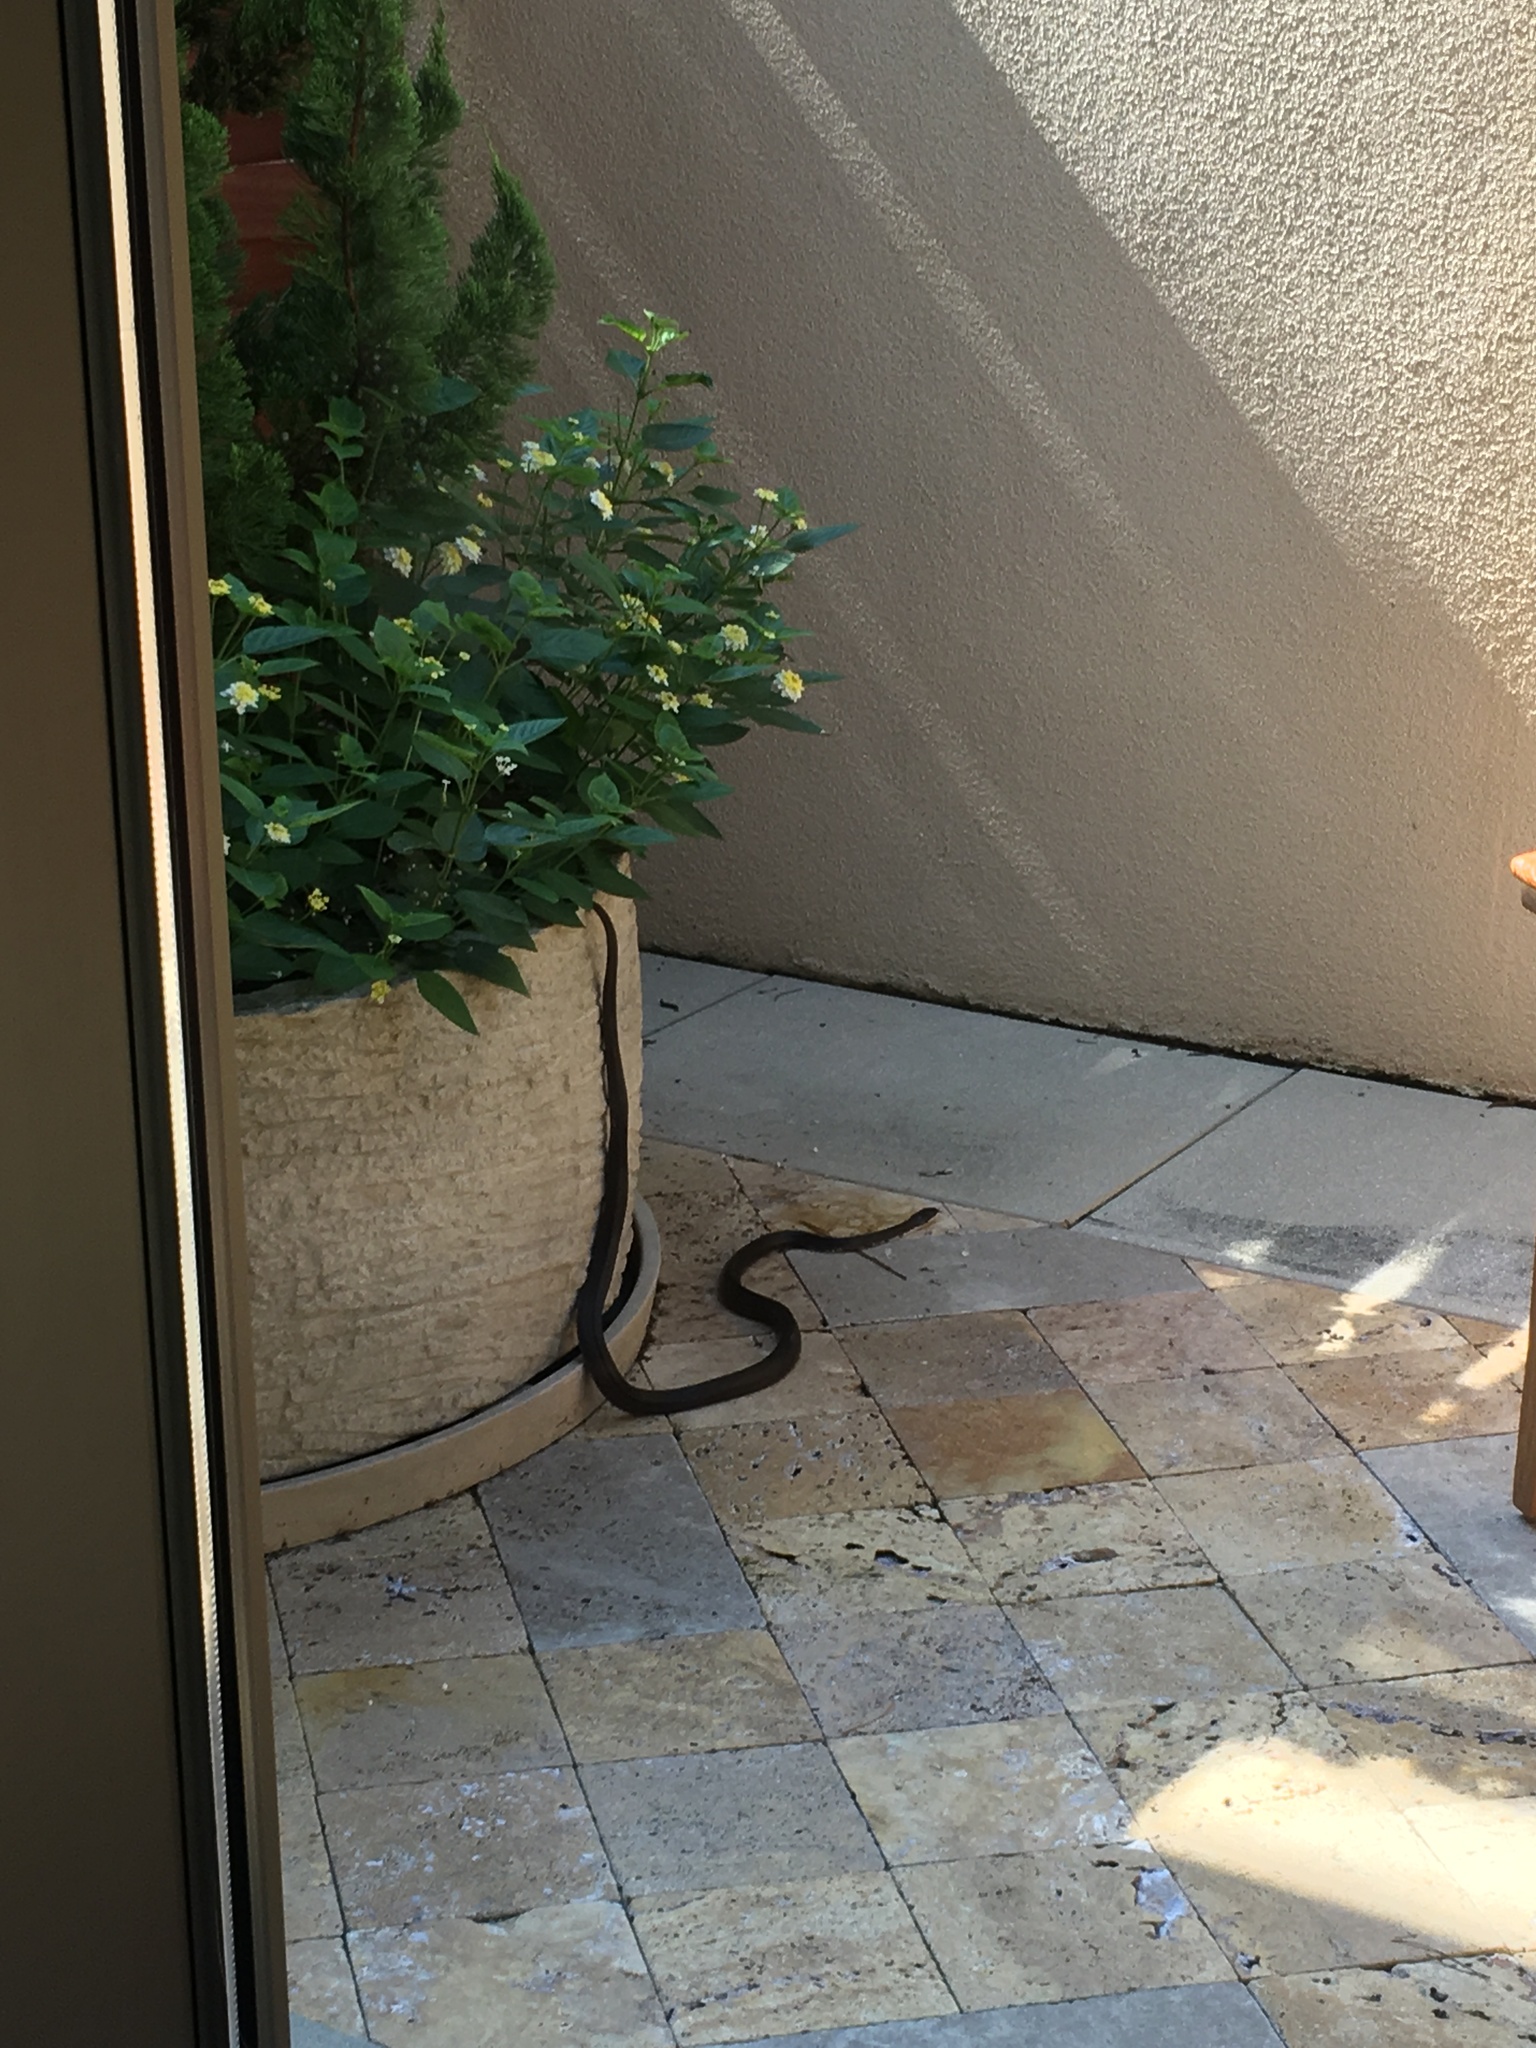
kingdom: Animalia
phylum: Chordata
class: Squamata
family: Colubridae
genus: Pantherophis
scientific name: Pantherophis alleghaniensis
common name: Eastern rat snake
